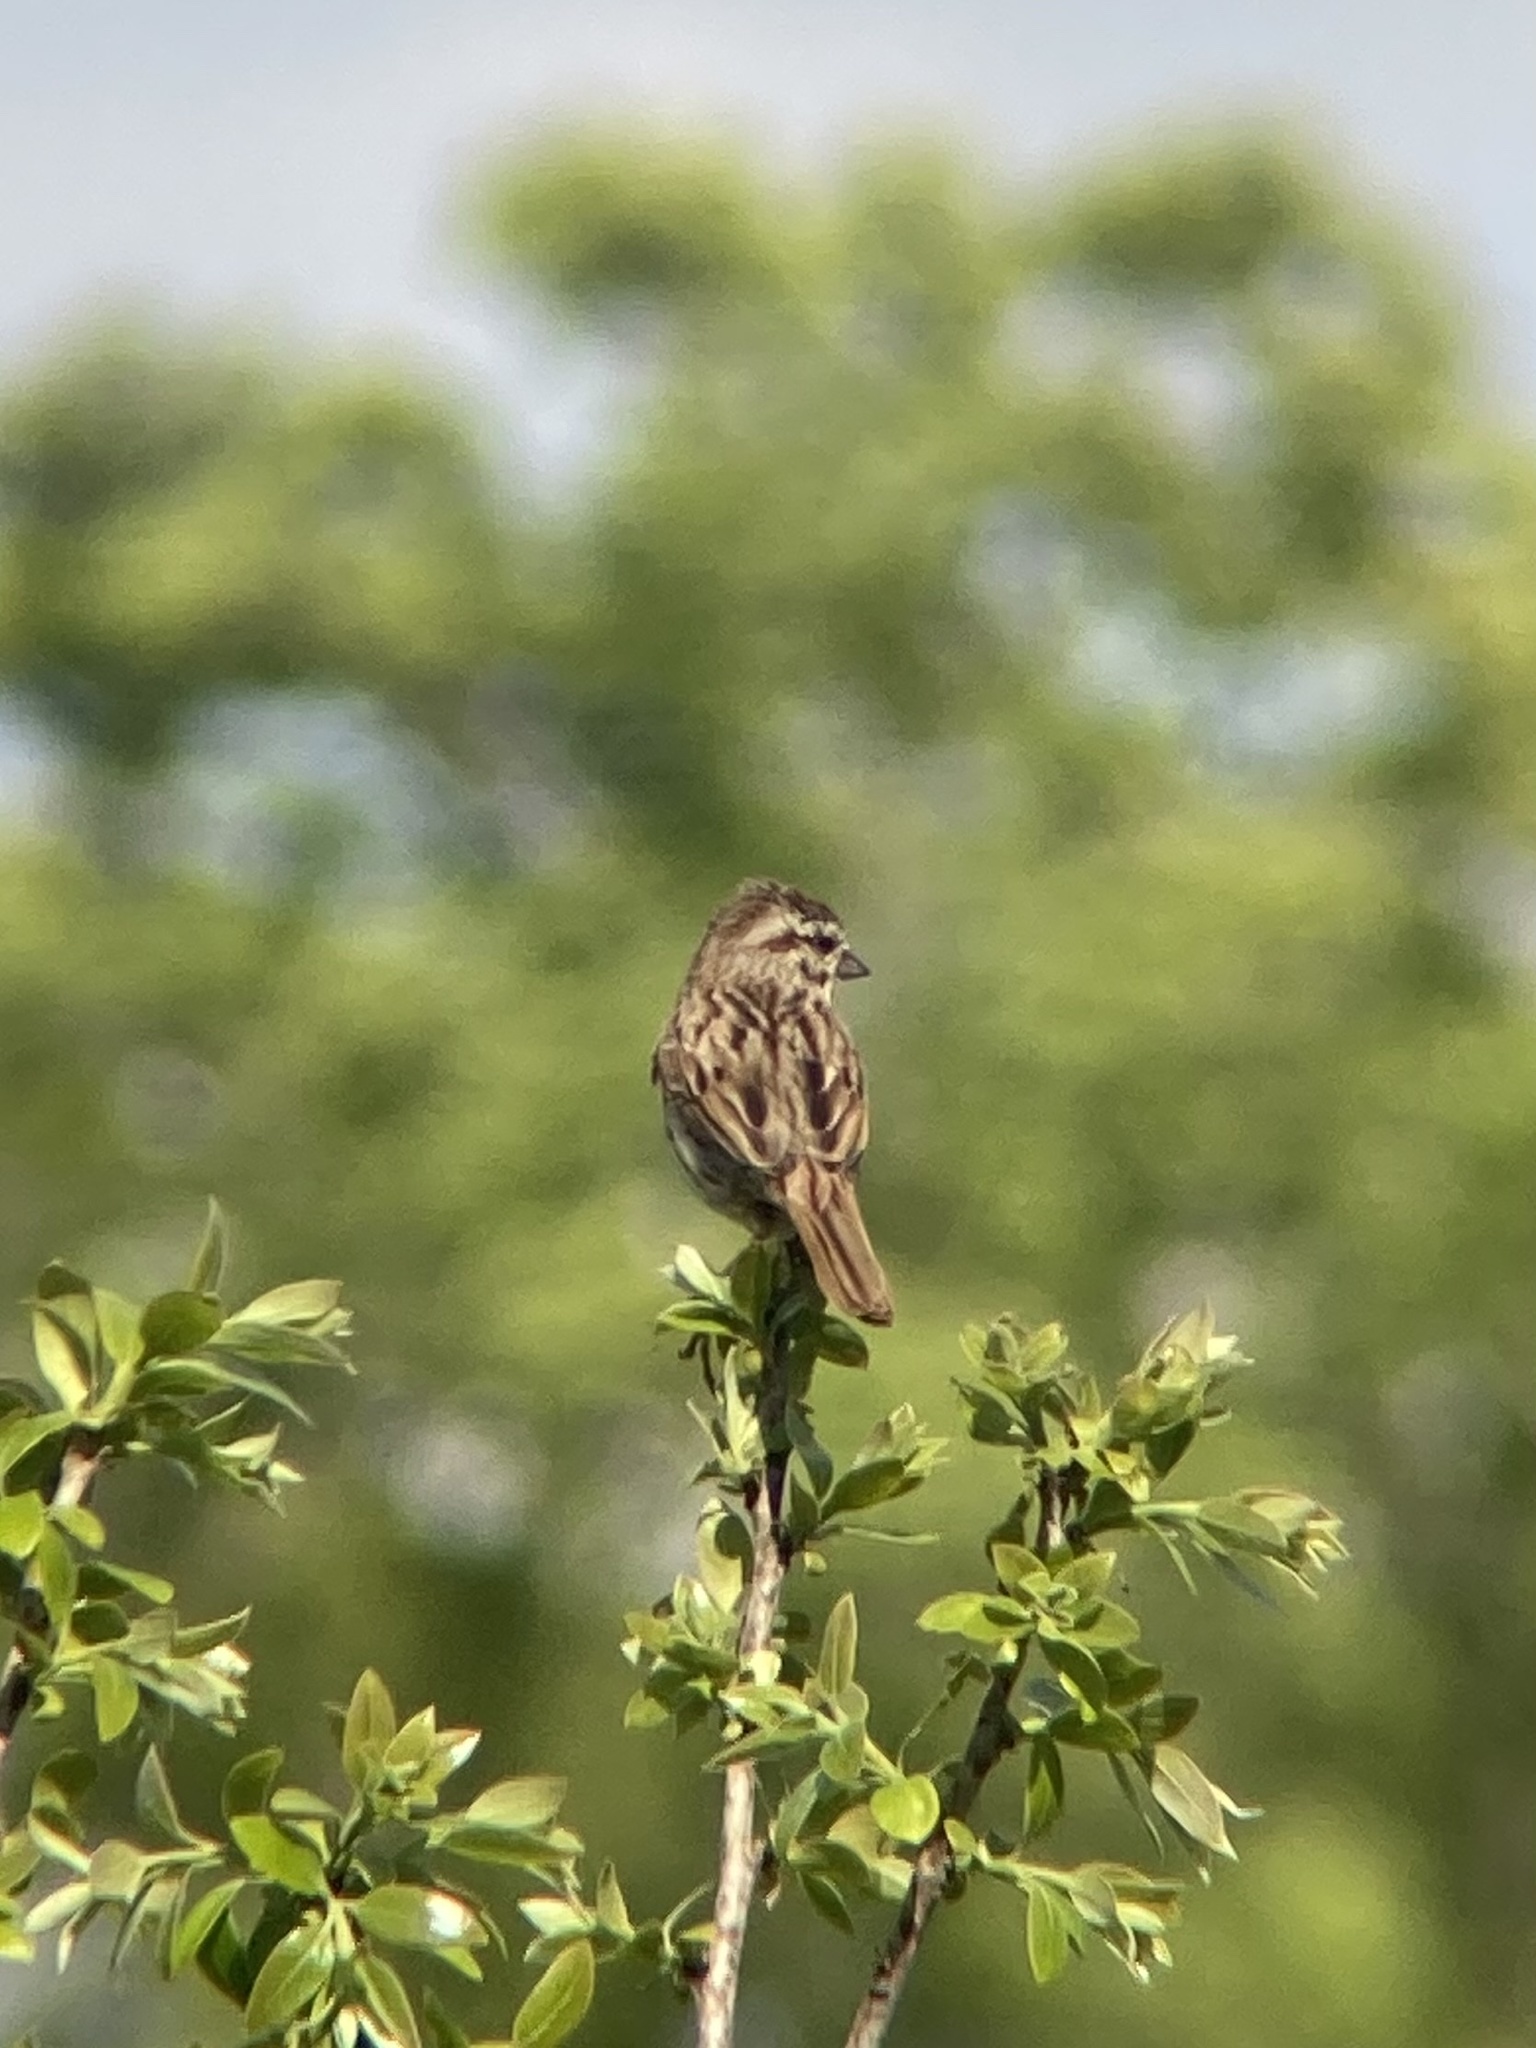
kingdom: Animalia
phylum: Chordata
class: Aves
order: Passeriformes
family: Passerellidae
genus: Melospiza
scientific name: Melospiza melodia
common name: Song sparrow
